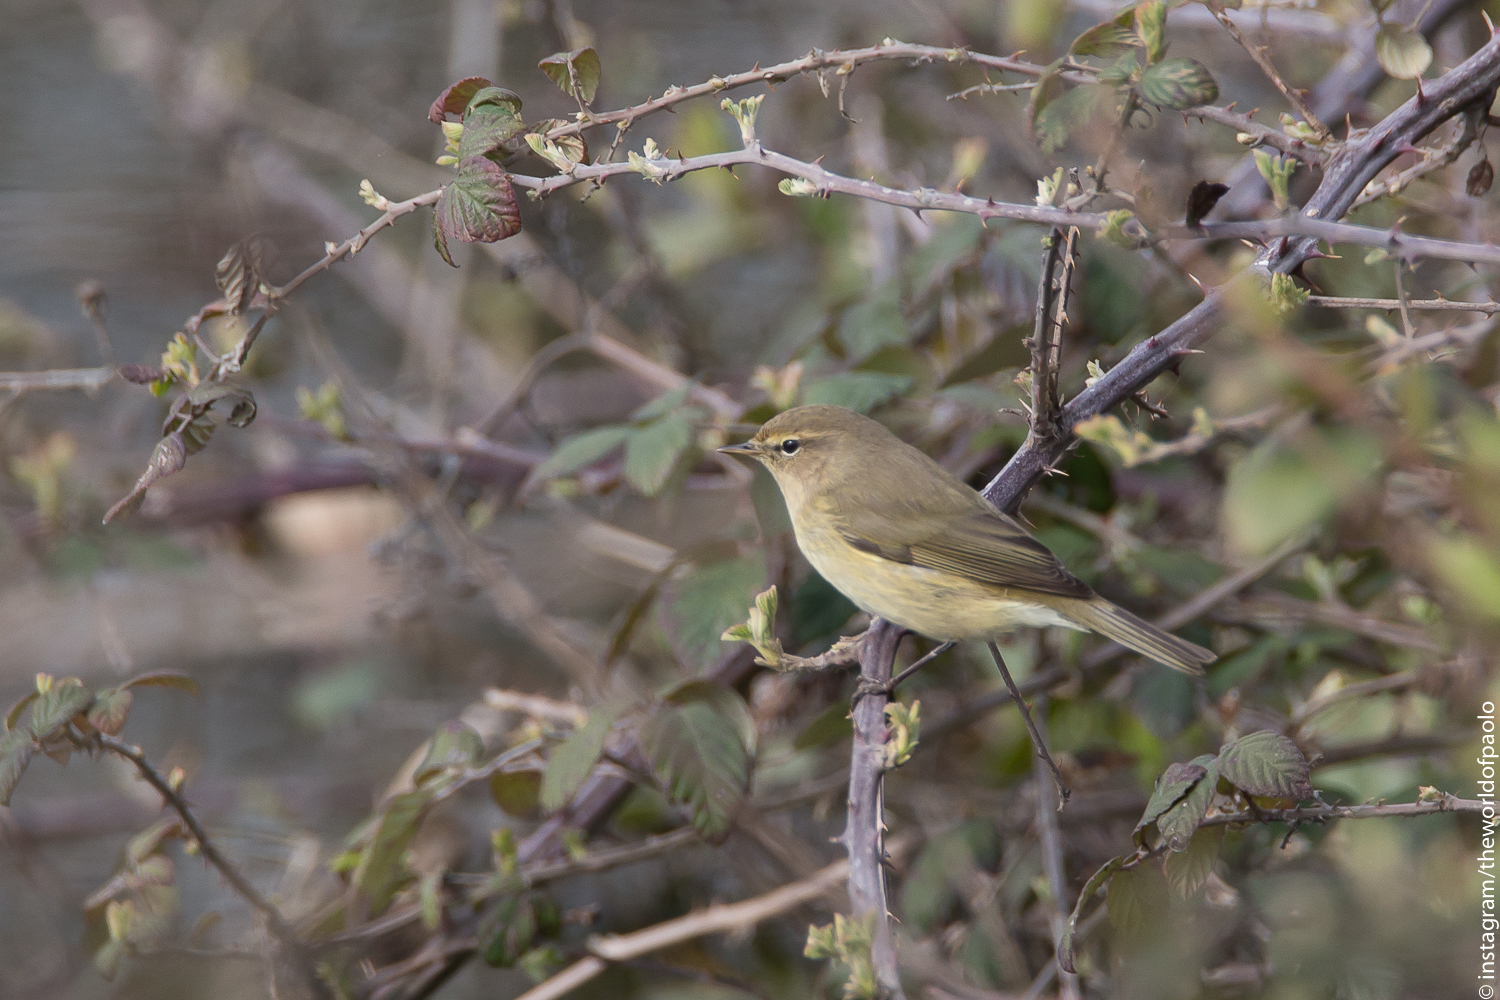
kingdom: Animalia
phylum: Chordata
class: Aves
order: Passeriformes
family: Phylloscopidae
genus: Phylloscopus
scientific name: Phylloscopus collybita
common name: Common chiffchaff
